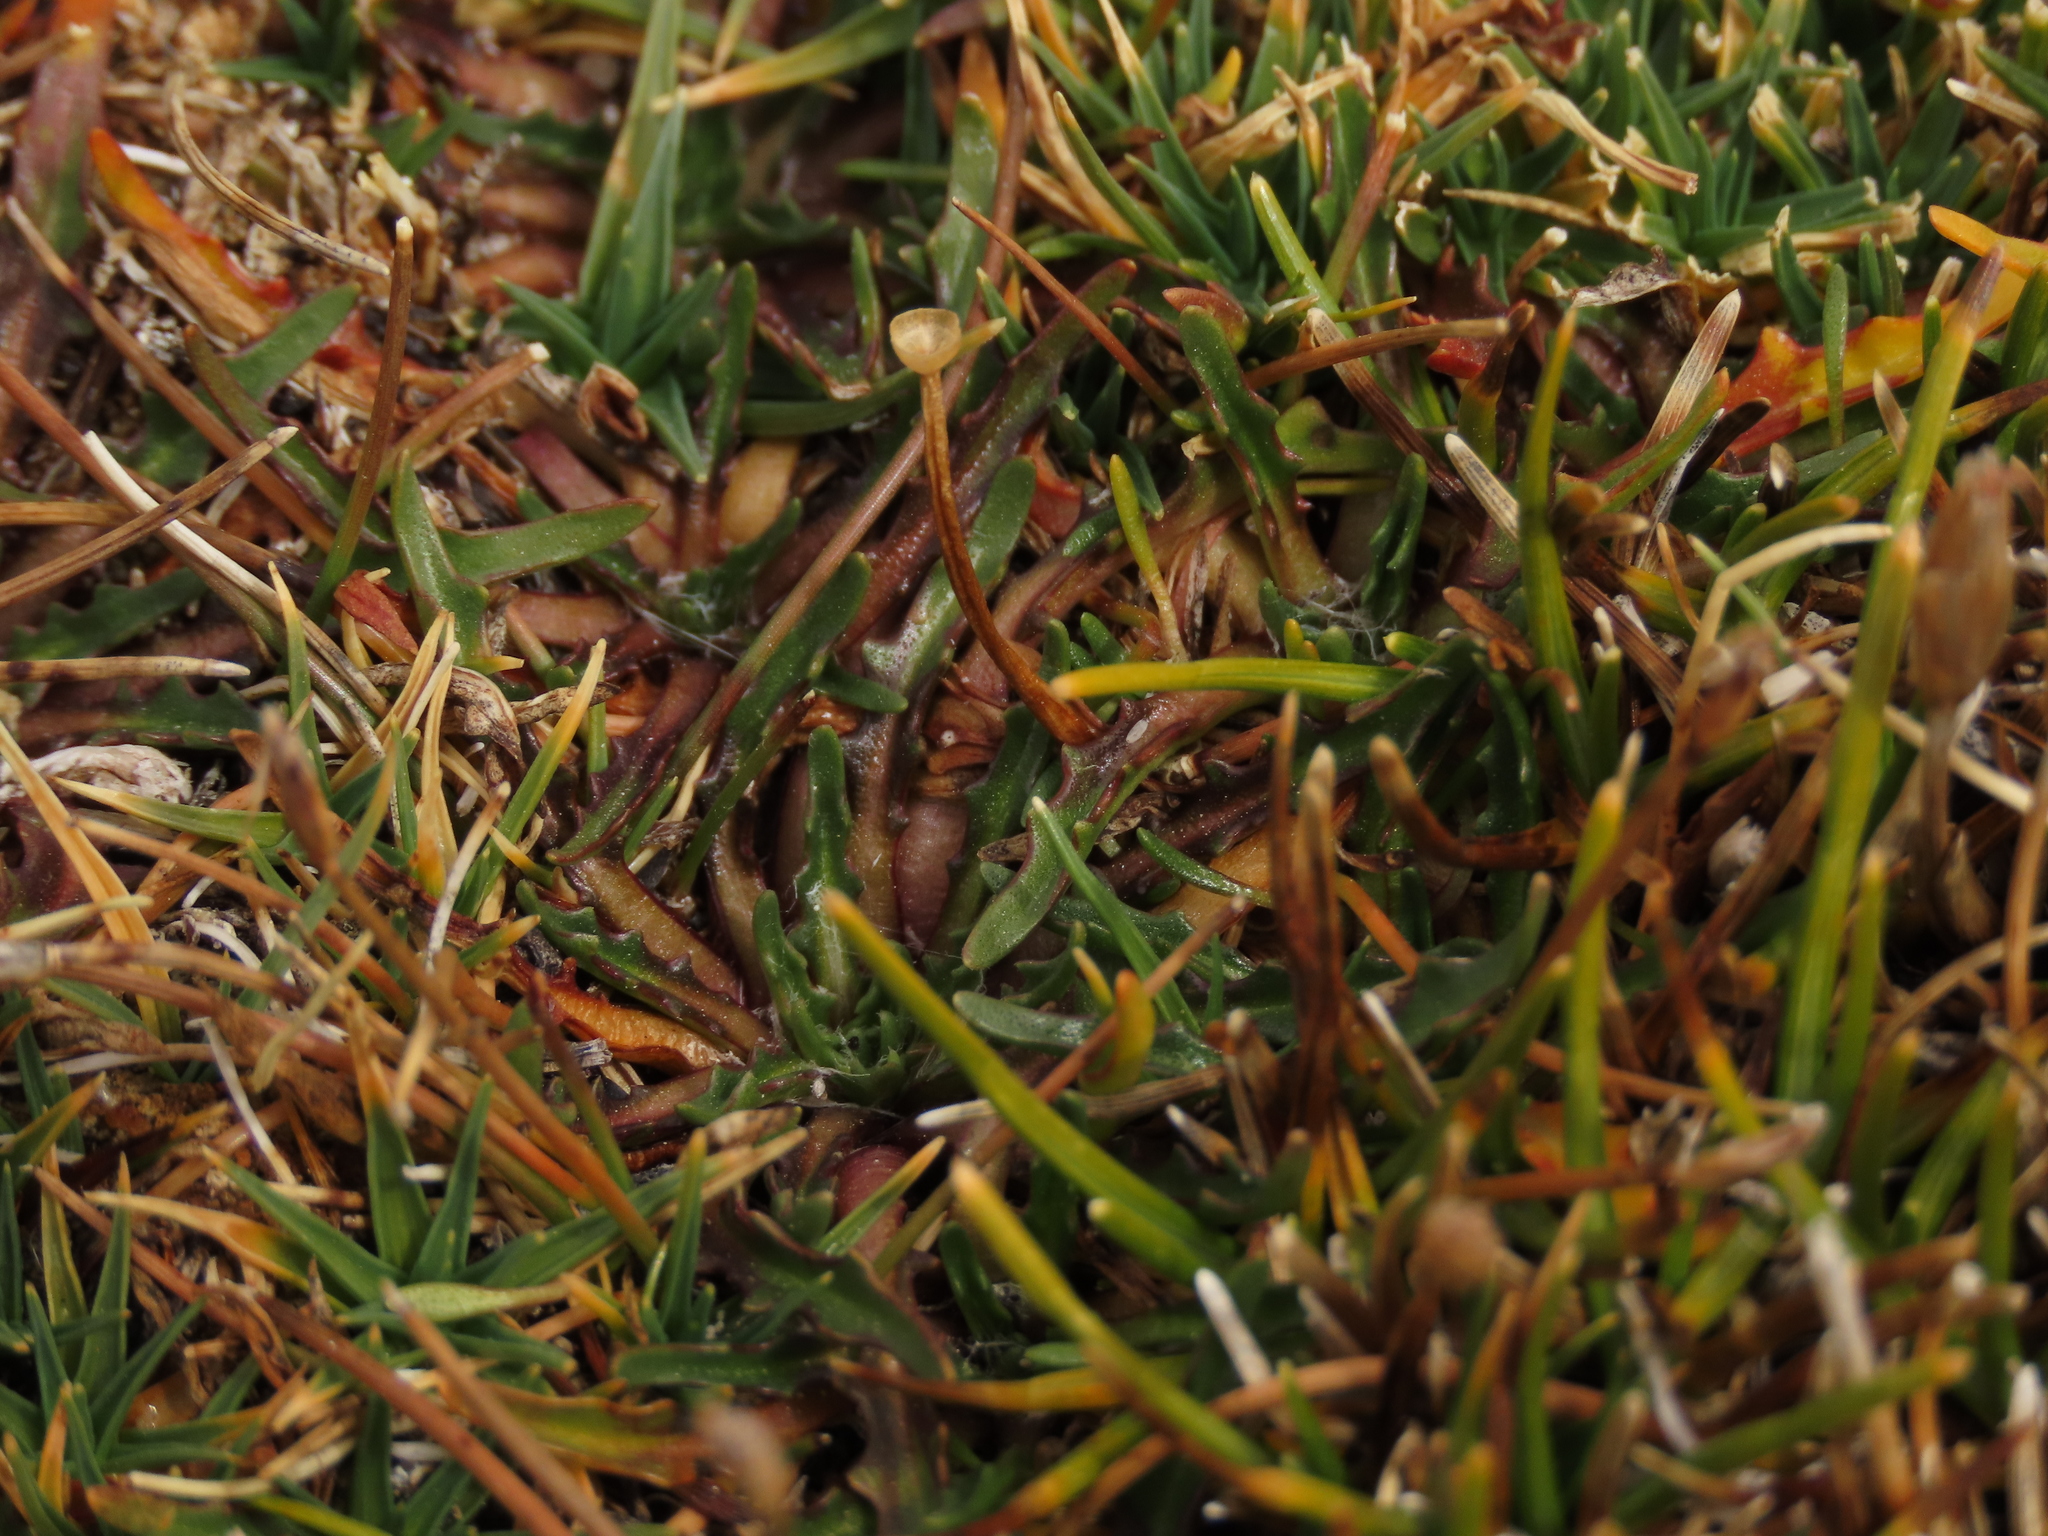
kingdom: Plantae
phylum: Tracheophyta
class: Magnoliopsida
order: Lamiales
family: Plantaginaceae
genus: Plantago
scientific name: Plantago tubulosa
